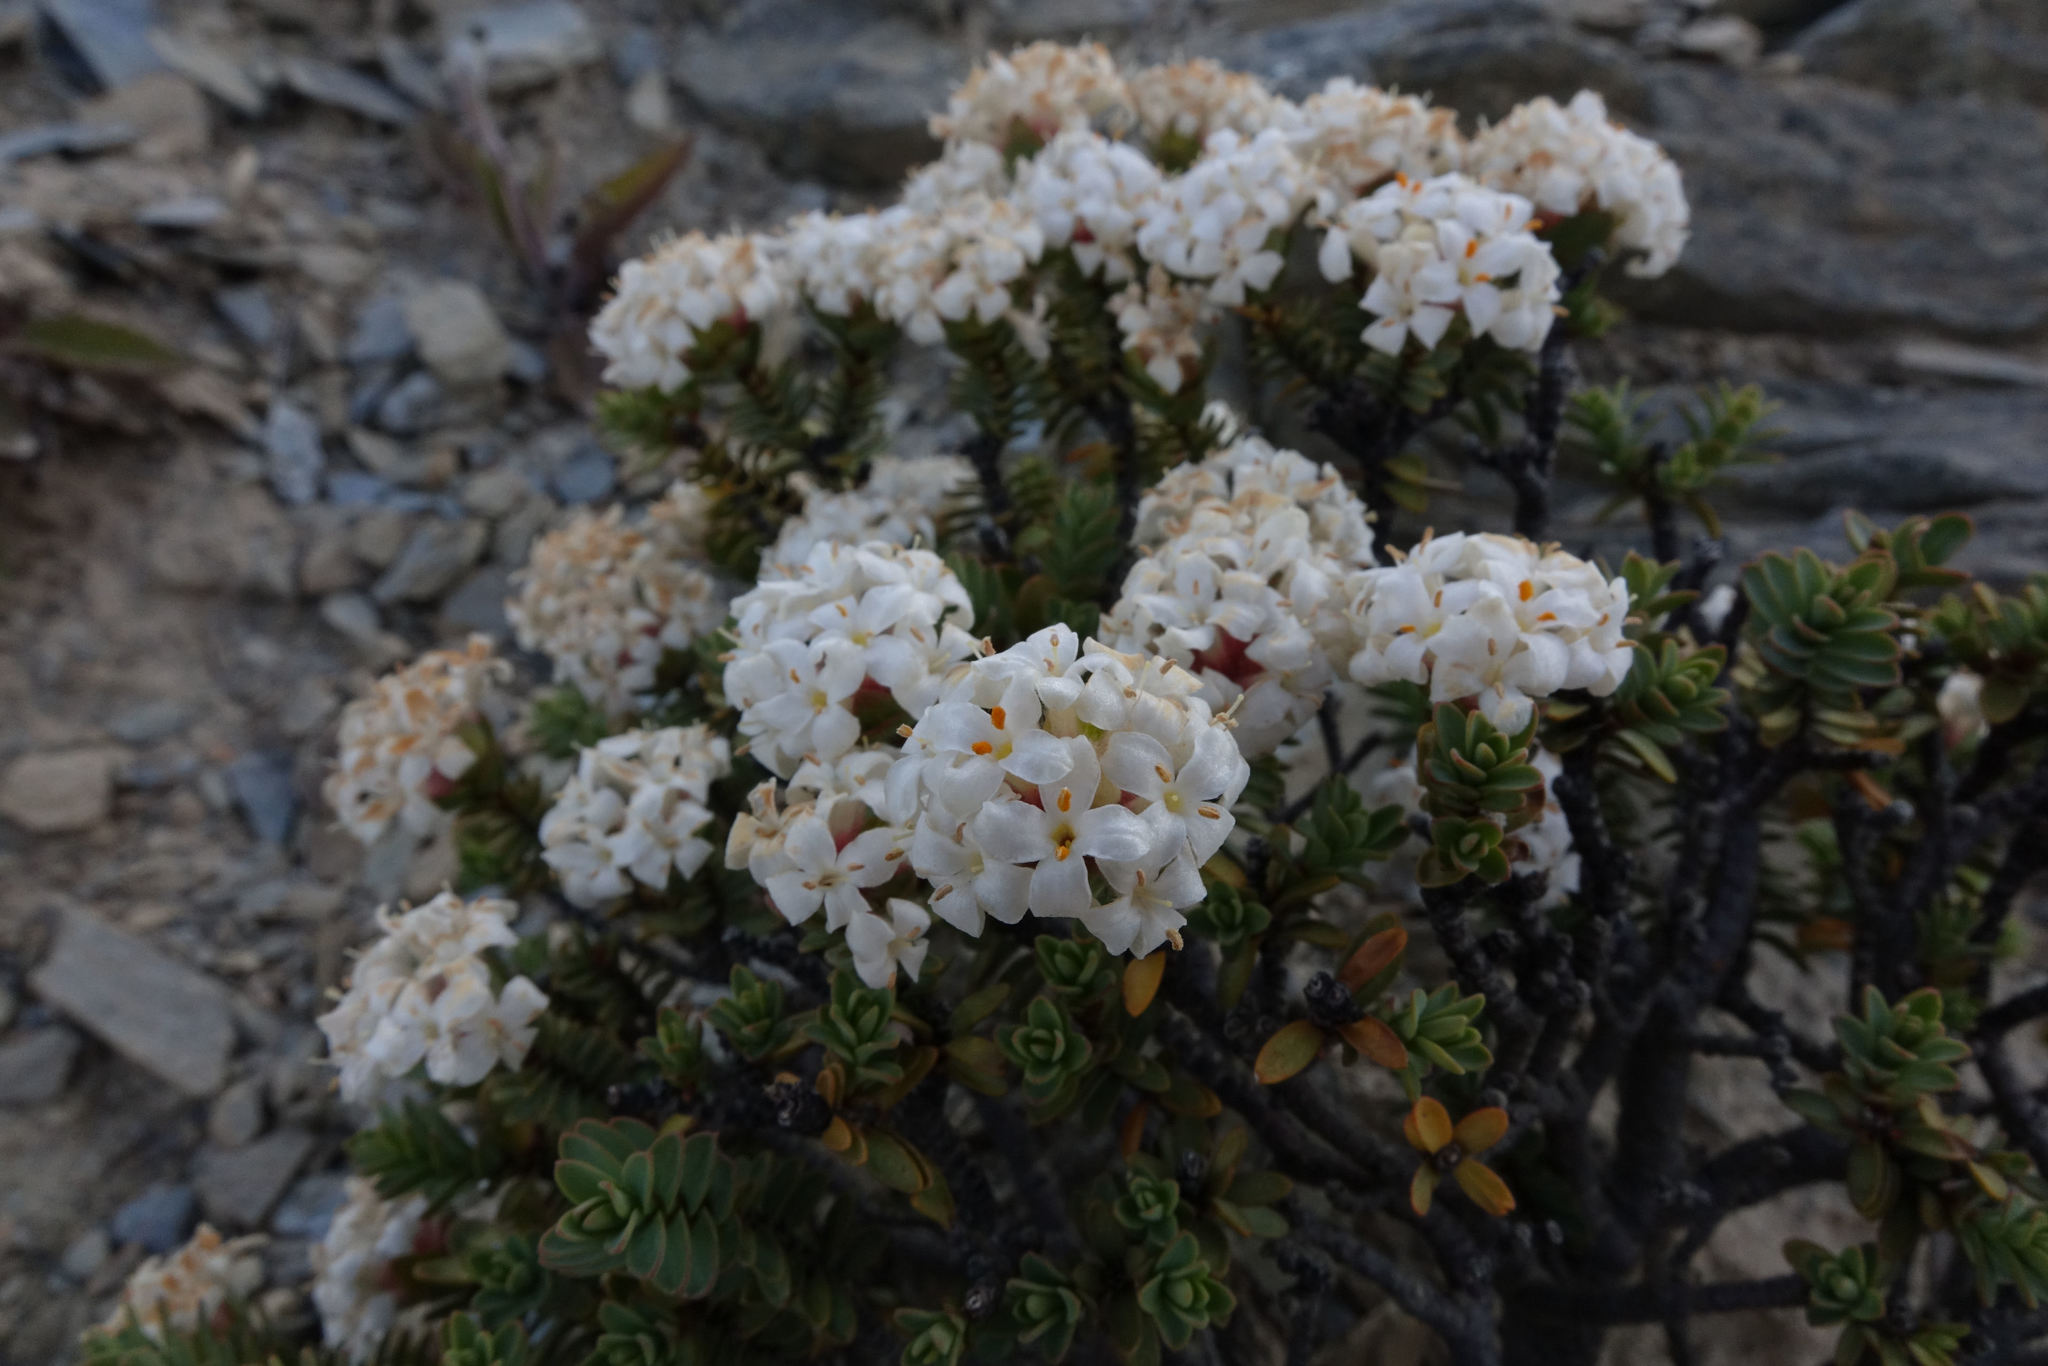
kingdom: Plantae
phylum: Tracheophyta
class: Magnoliopsida
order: Malvales
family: Thymelaeaceae
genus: Pimelea
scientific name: Pimelea traversii
